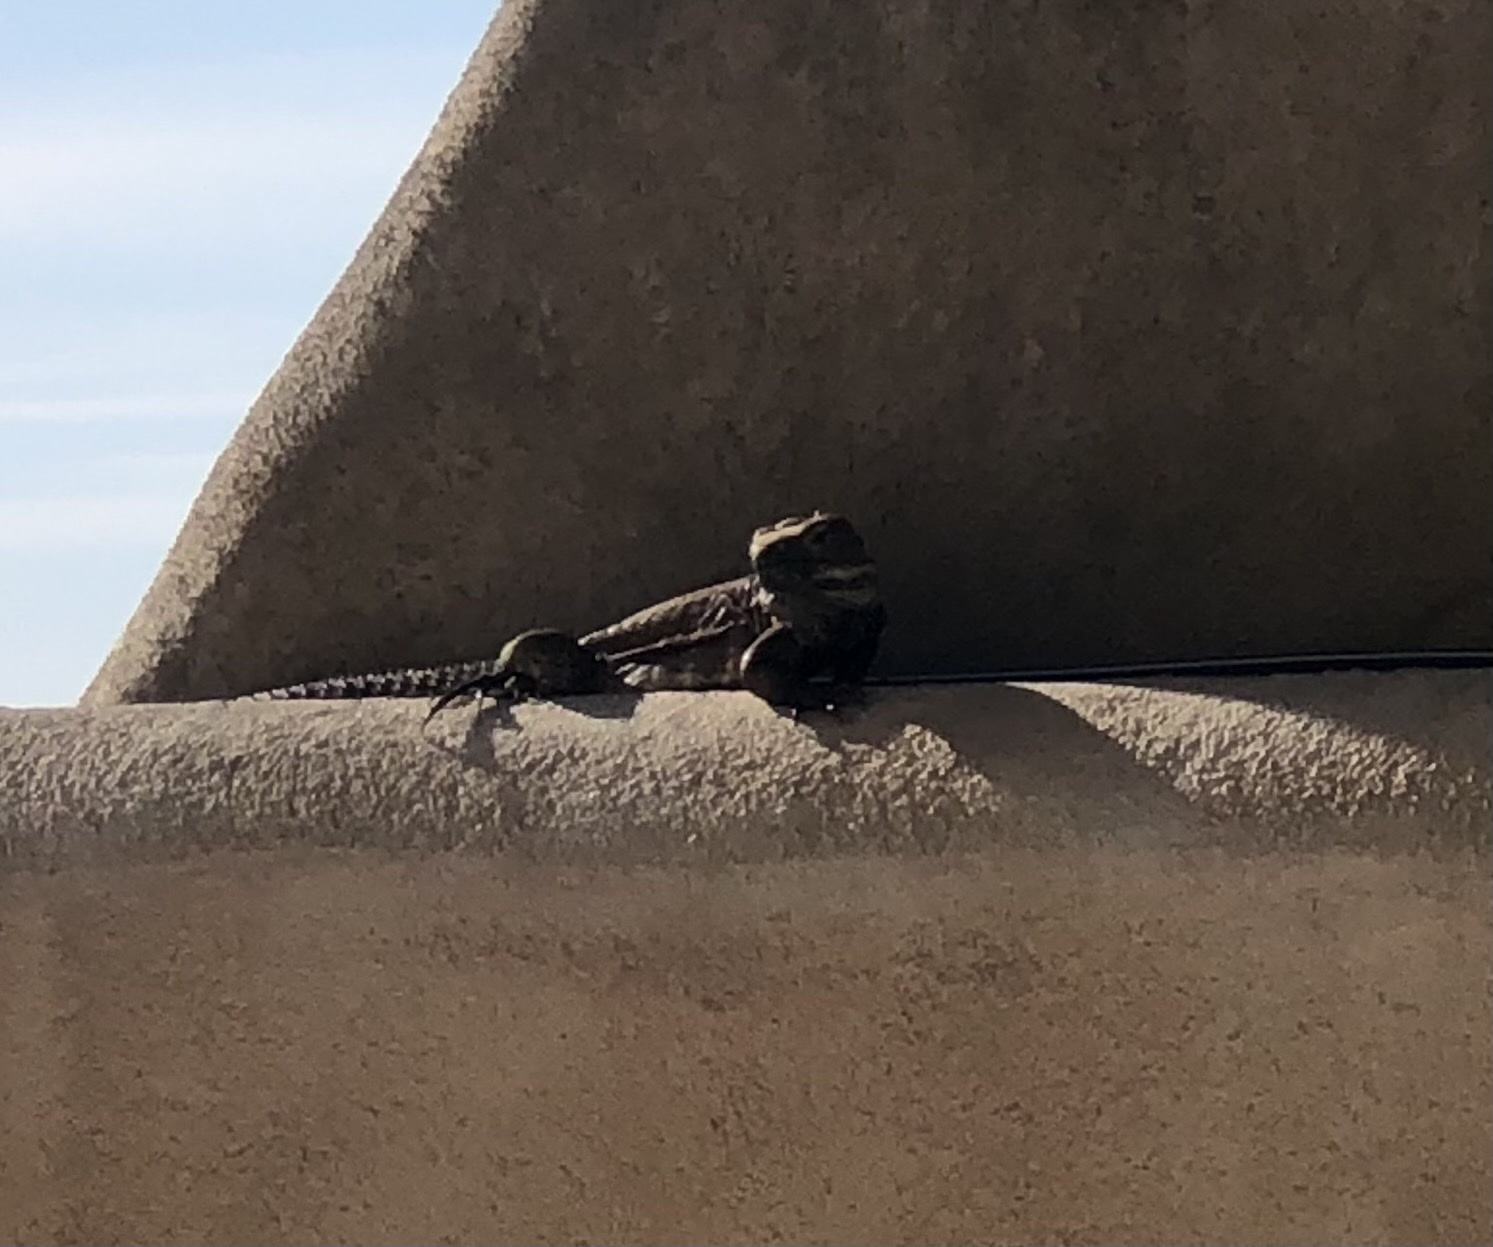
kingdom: Animalia
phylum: Chordata
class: Squamata
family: Iguanidae
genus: Ctenosaura
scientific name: Ctenosaura hemilopha
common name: Baja california spiny- tailed iguana
